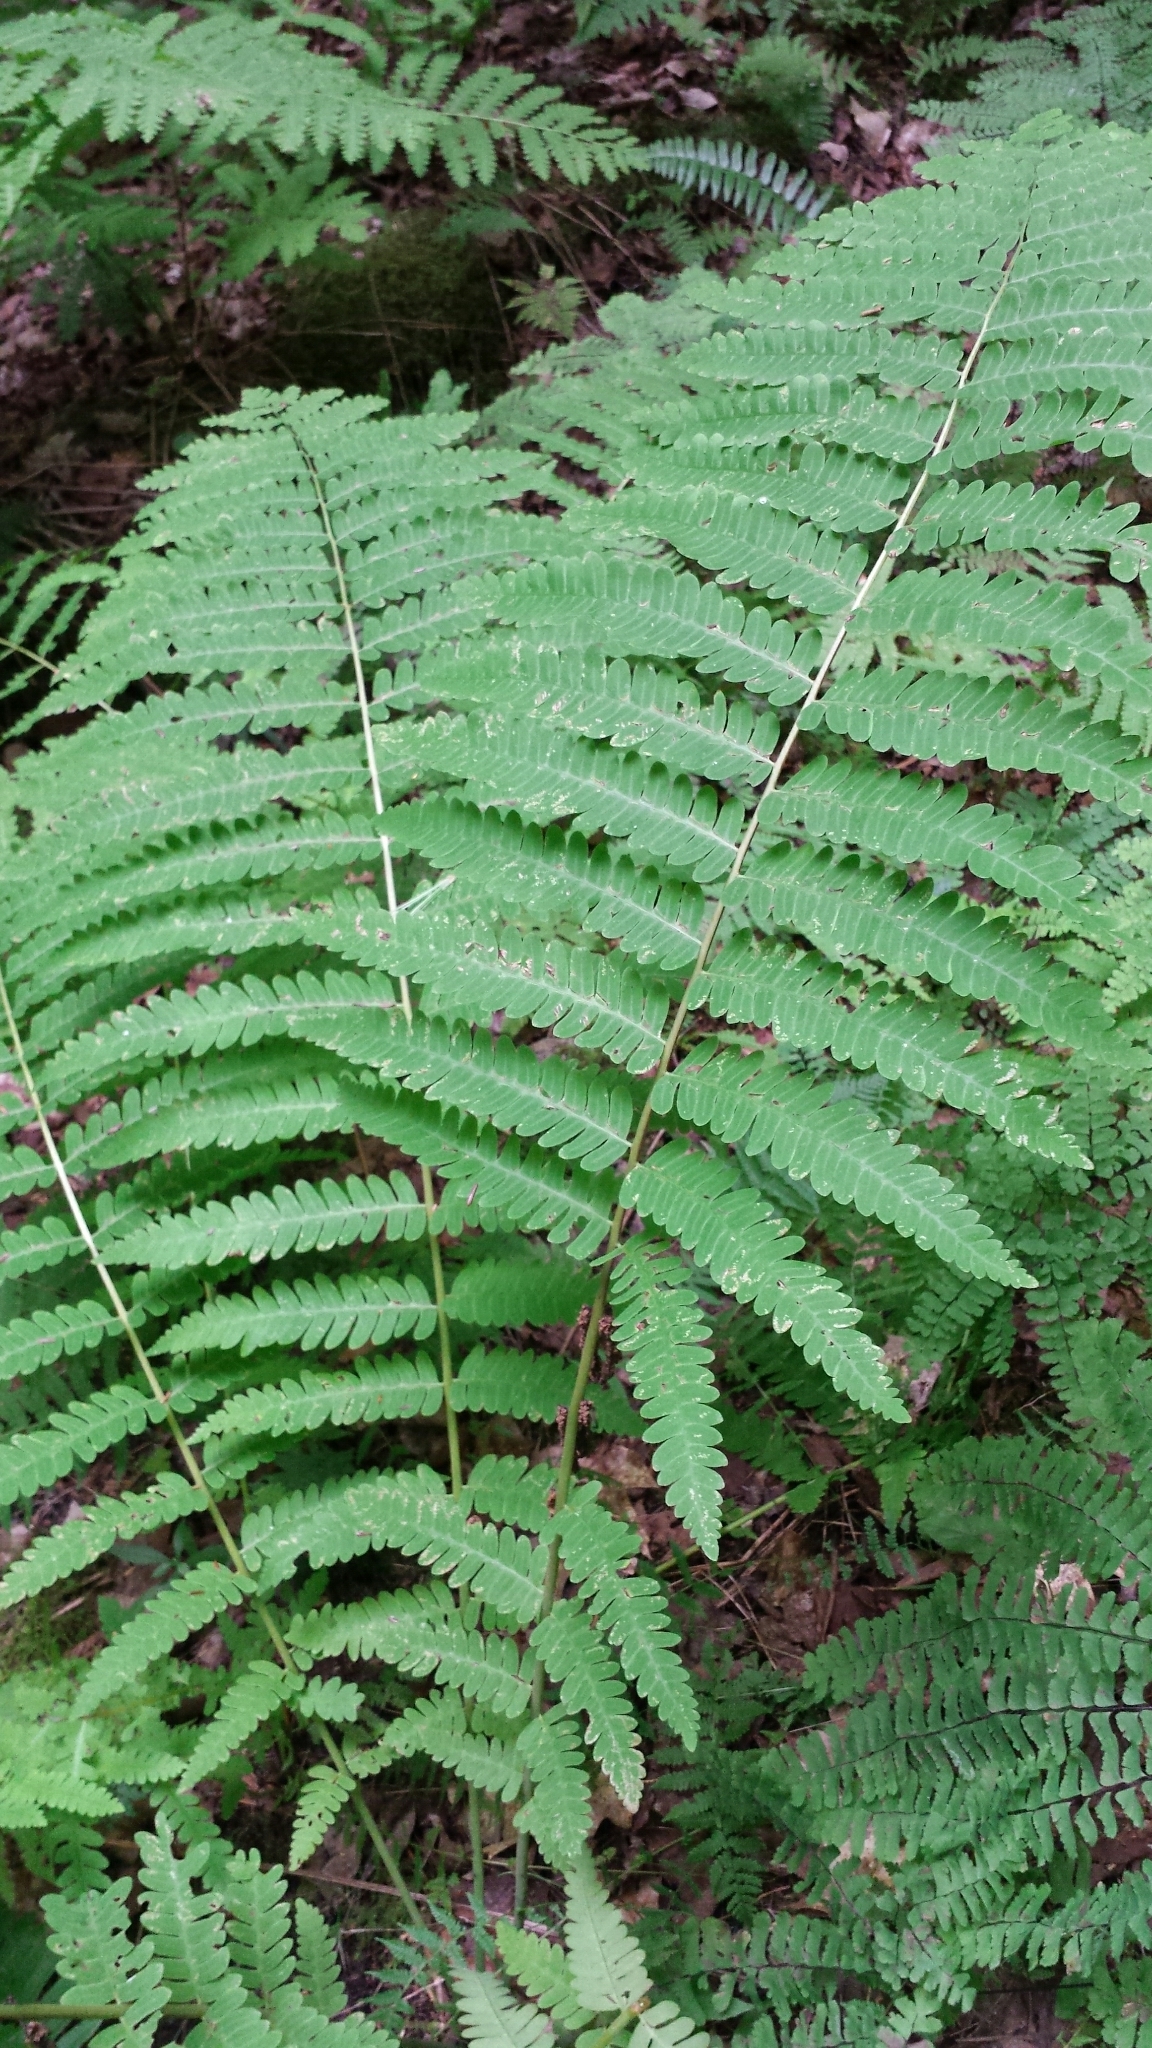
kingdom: Plantae
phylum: Tracheophyta
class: Polypodiopsida
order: Osmundales
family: Osmundaceae
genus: Claytosmunda
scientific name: Claytosmunda claytoniana
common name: Clayton's fern
